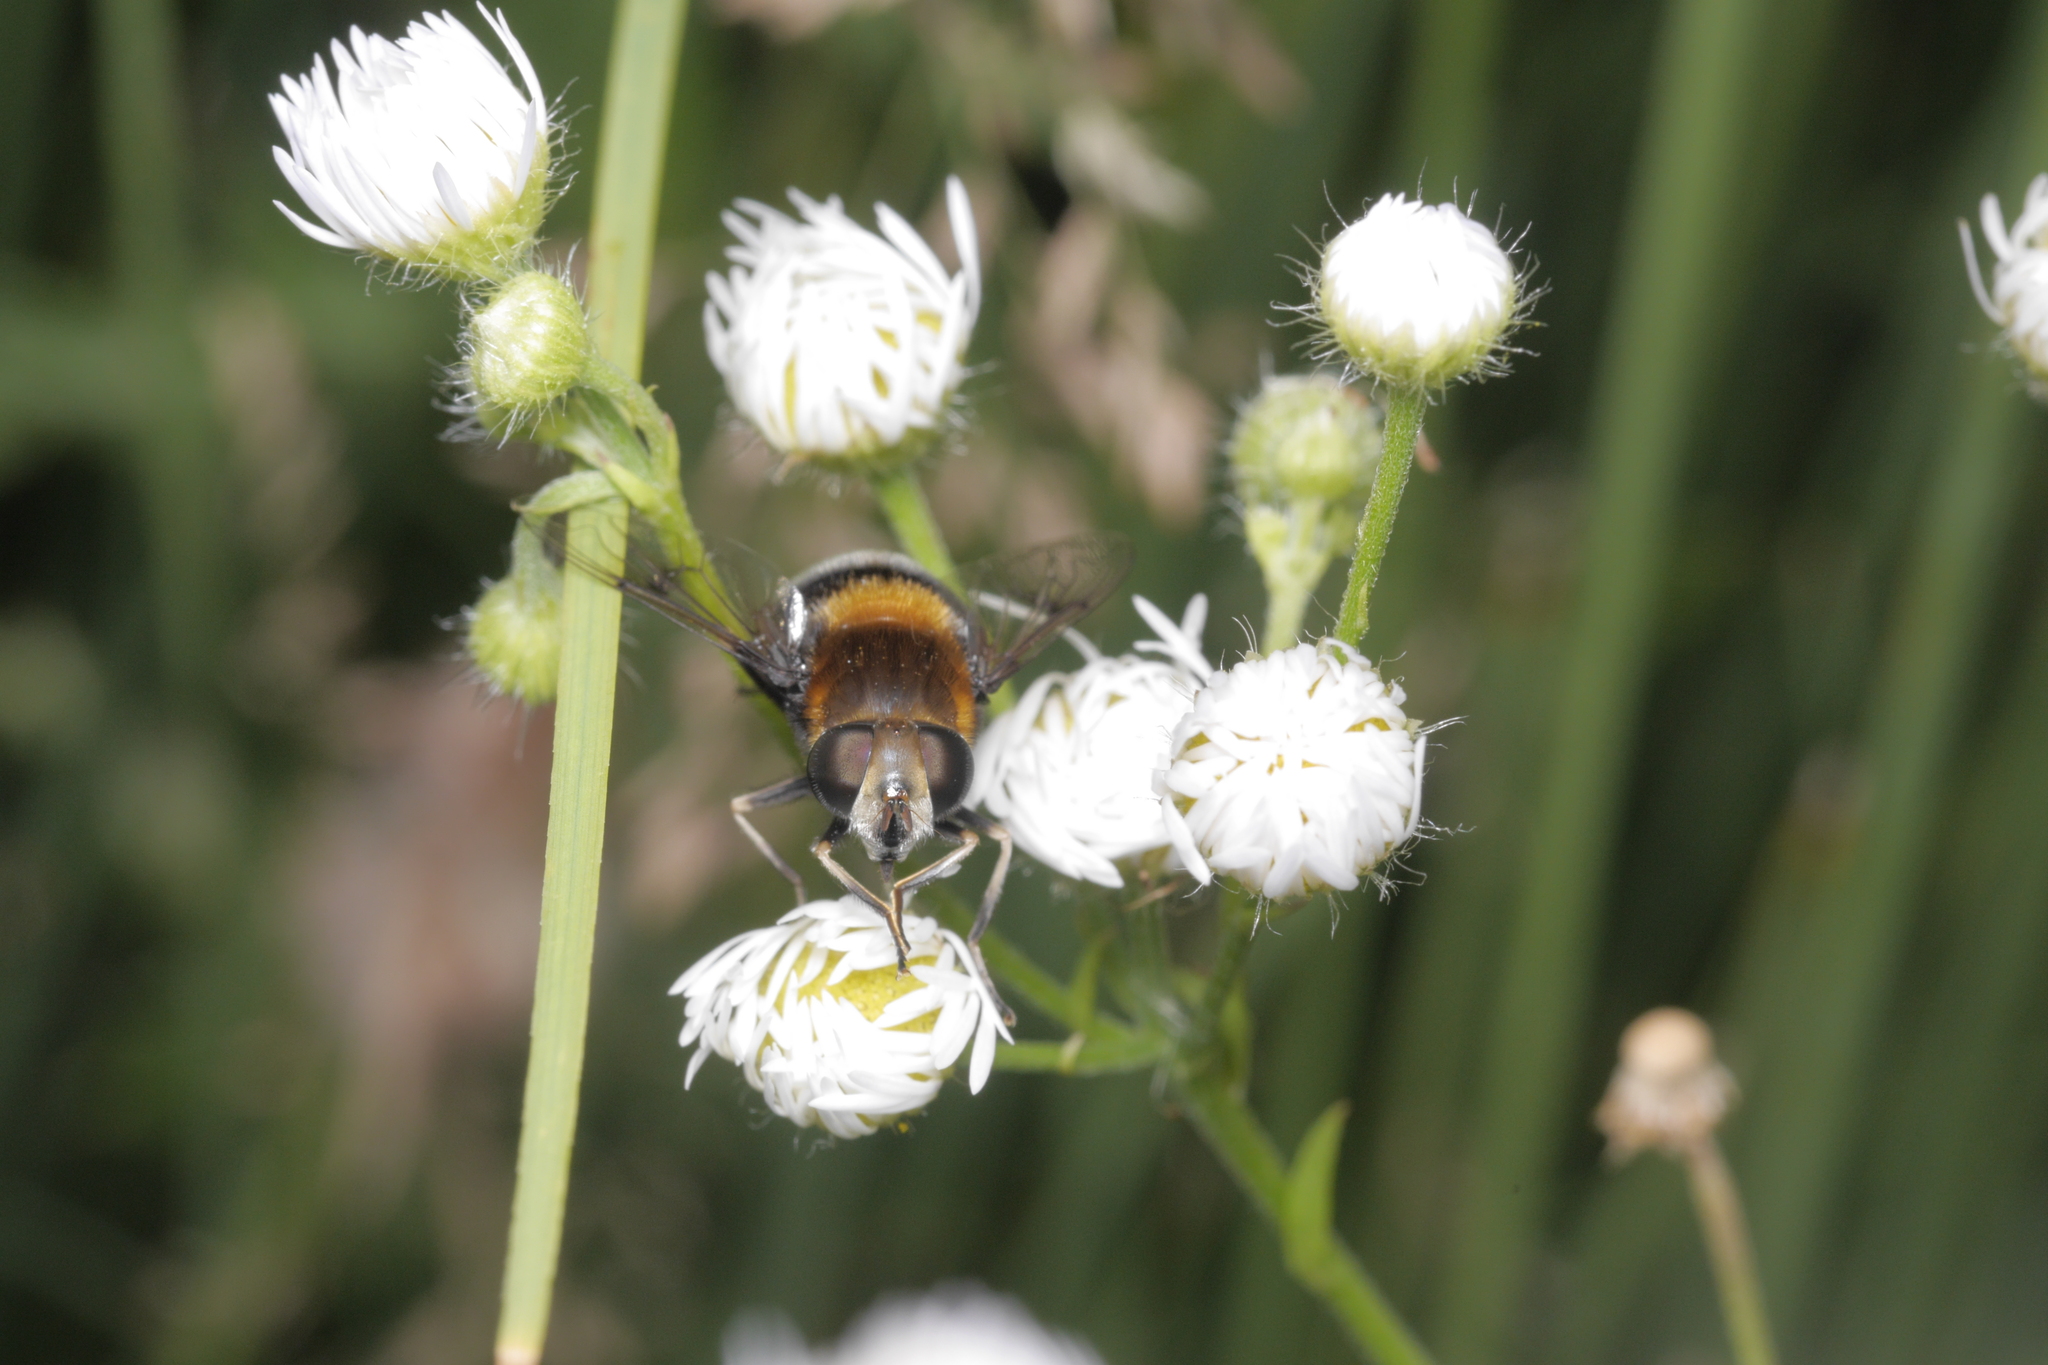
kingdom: Animalia
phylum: Arthropoda
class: Insecta
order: Diptera
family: Syrphidae
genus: Eristalis
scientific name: Eristalis intricaria
